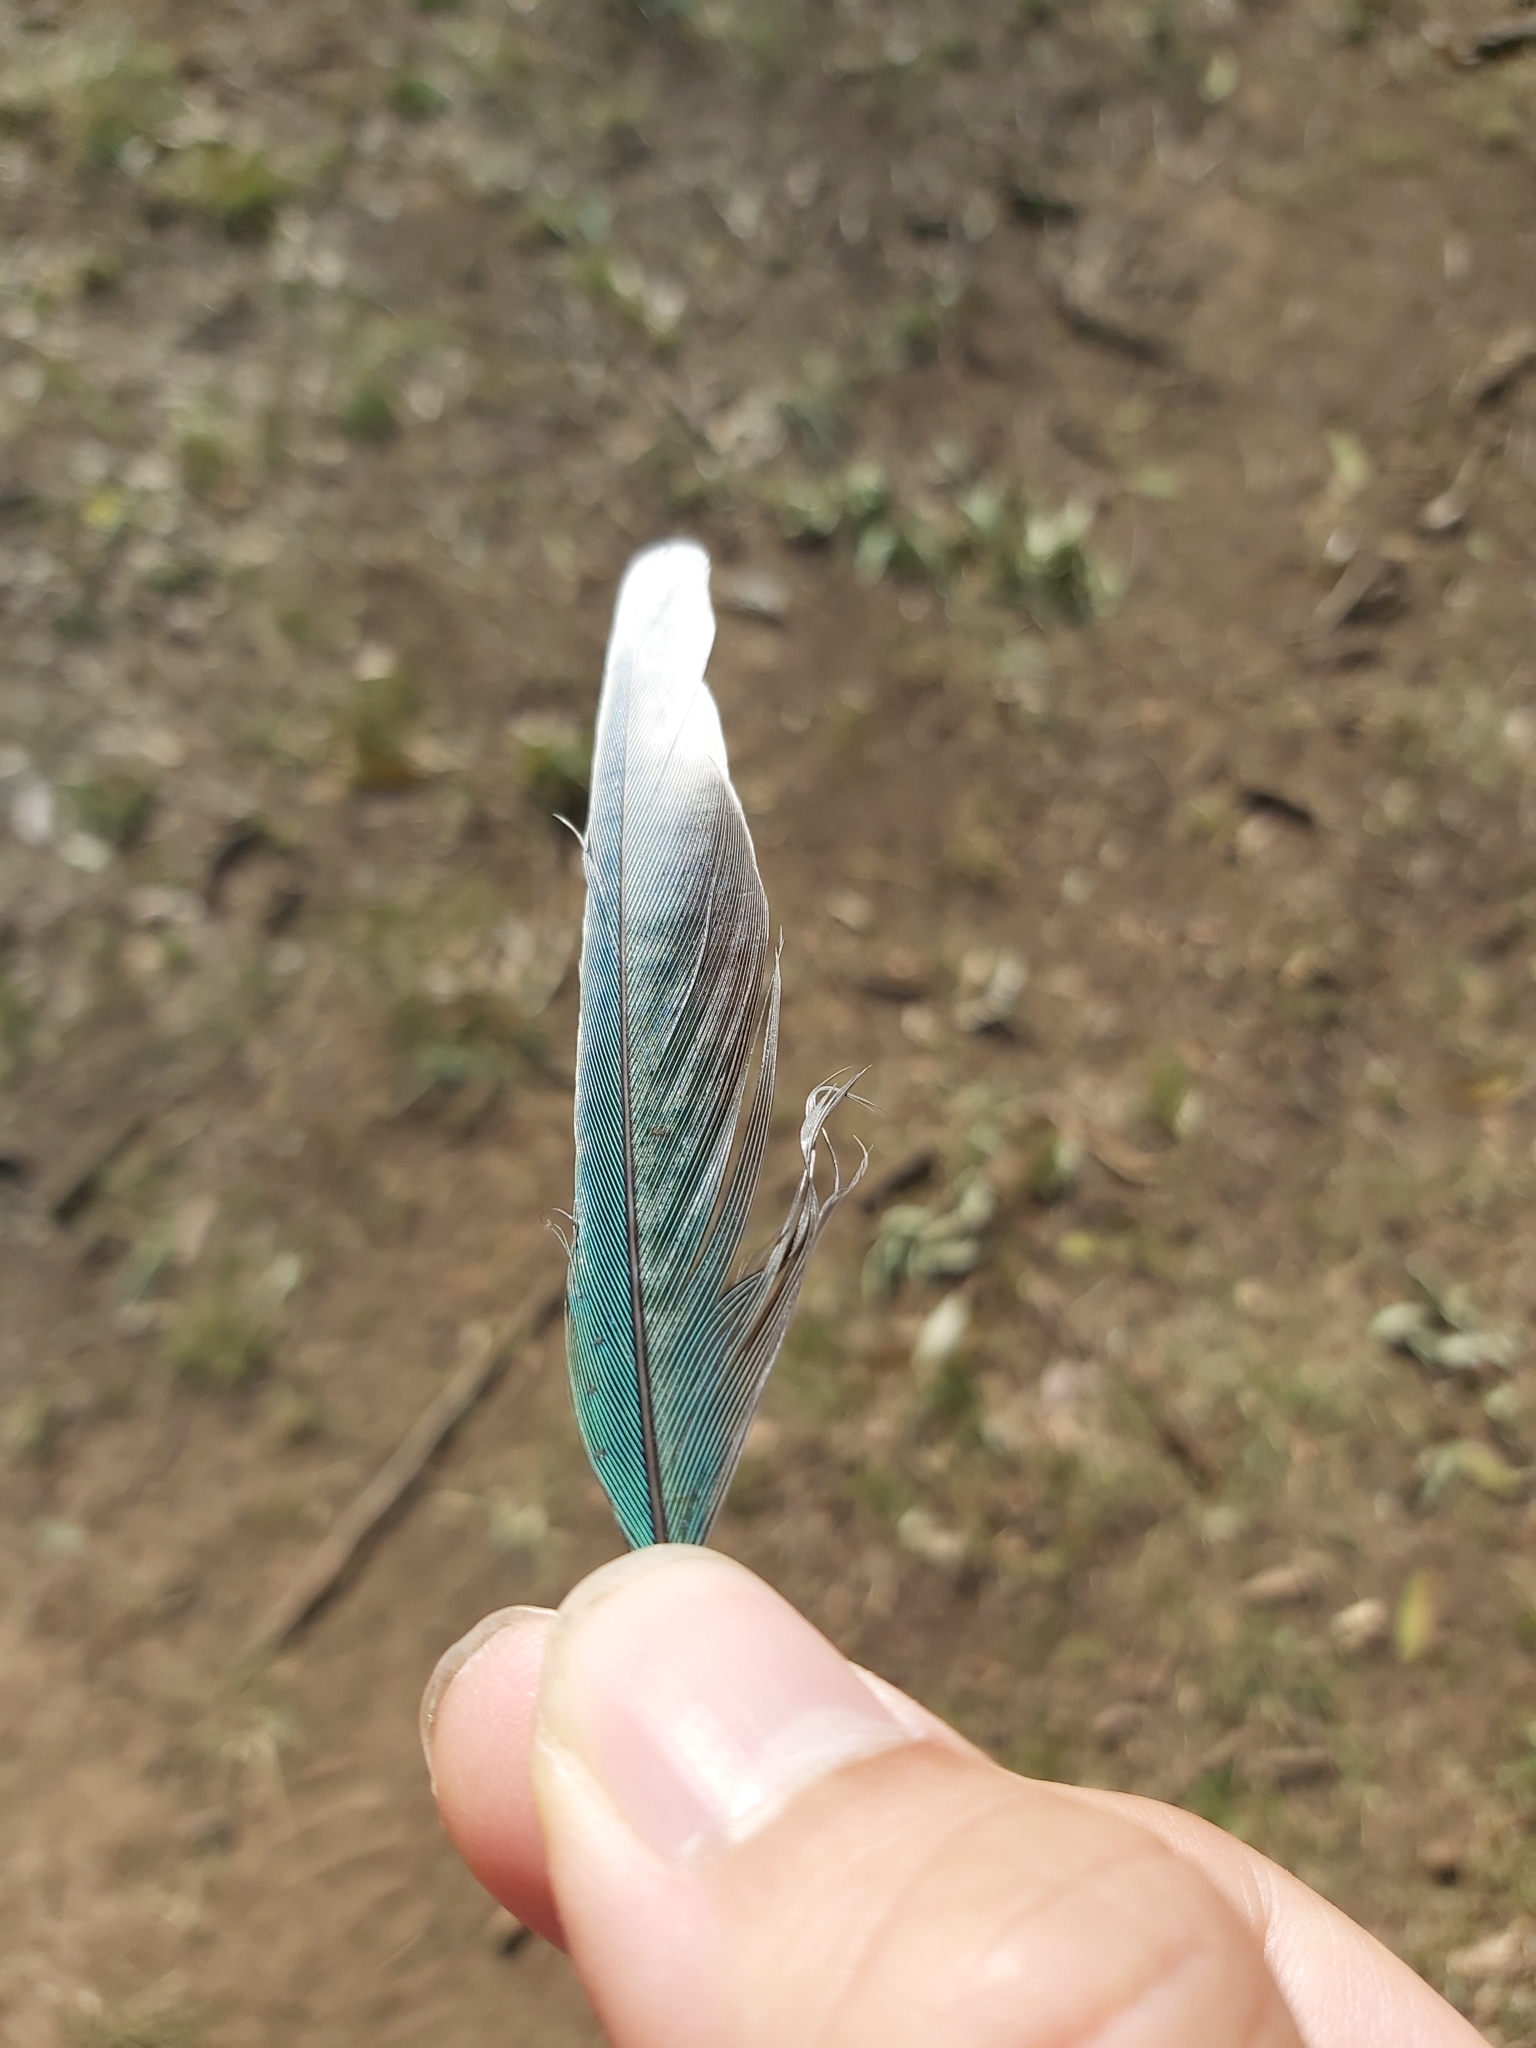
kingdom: Animalia
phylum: Chordata
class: Aves
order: Psittaciformes
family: Psittacidae
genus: Psephotus
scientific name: Psephotus haematonotus
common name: Red-rumped parrot
